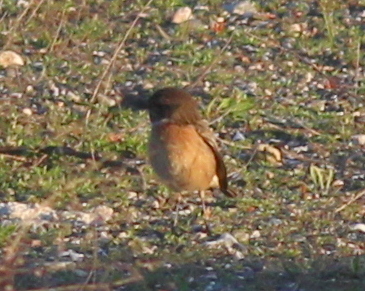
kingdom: Animalia
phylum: Chordata
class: Aves
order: Passeriformes
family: Muscicapidae
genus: Saxicola
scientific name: Saxicola rubicola
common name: European stonechat
